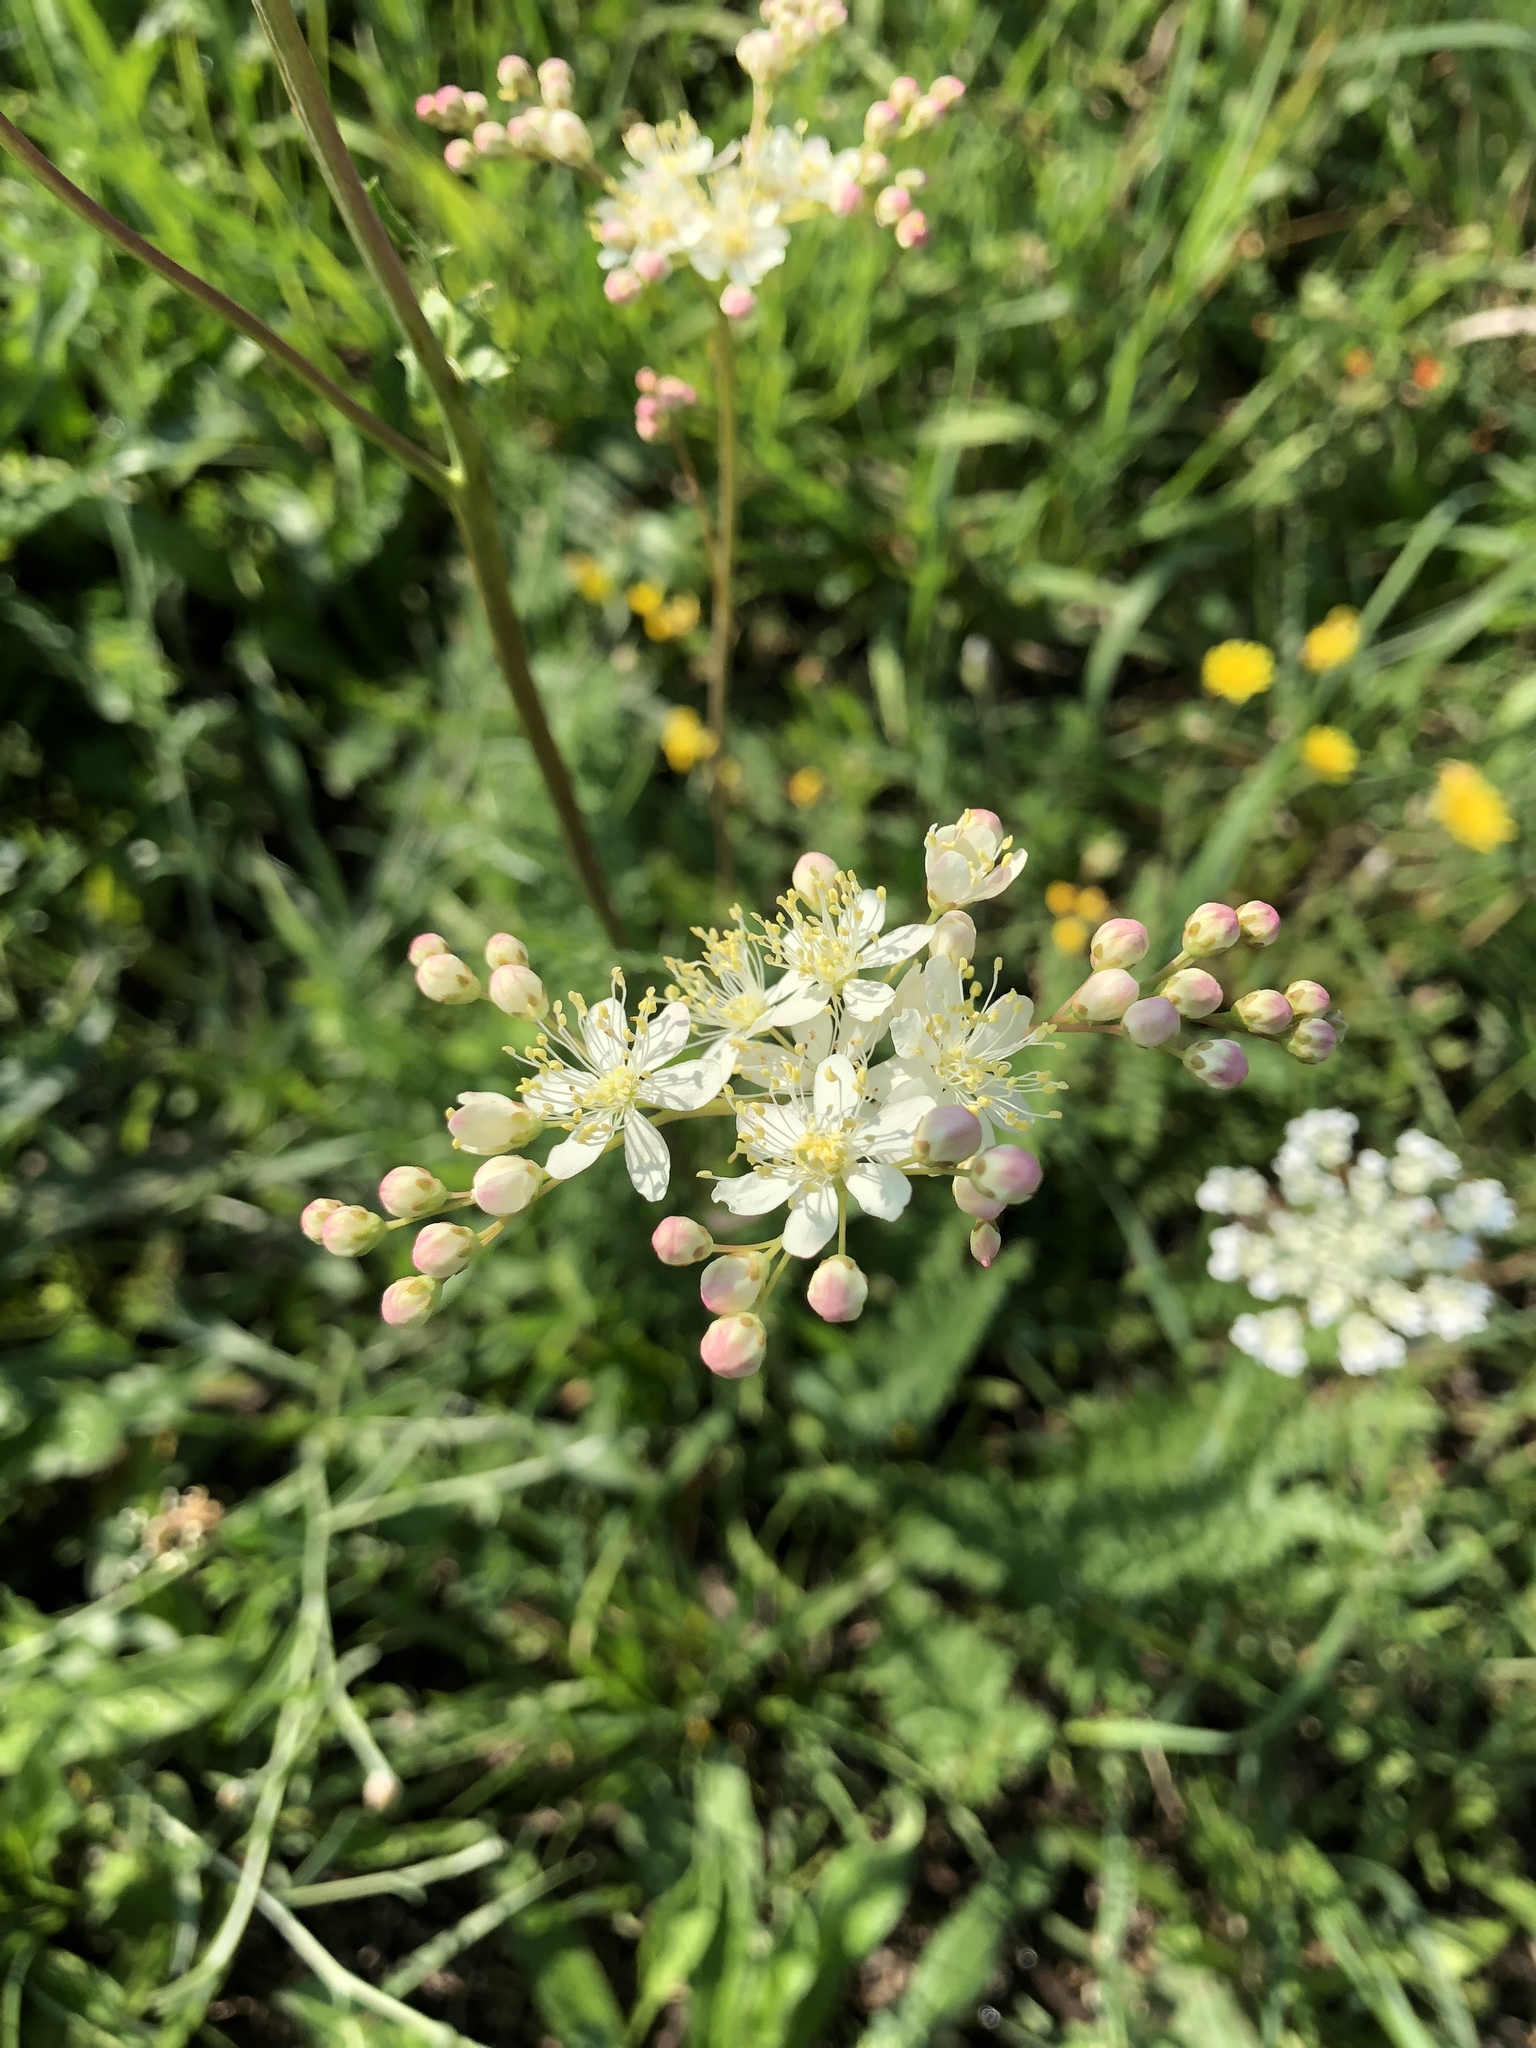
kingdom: Plantae
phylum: Tracheophyta
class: Magnoliopsida
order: Rosales
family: Rosaceae
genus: Filipendula
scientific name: Filipendula vulgaris
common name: Dropwort
